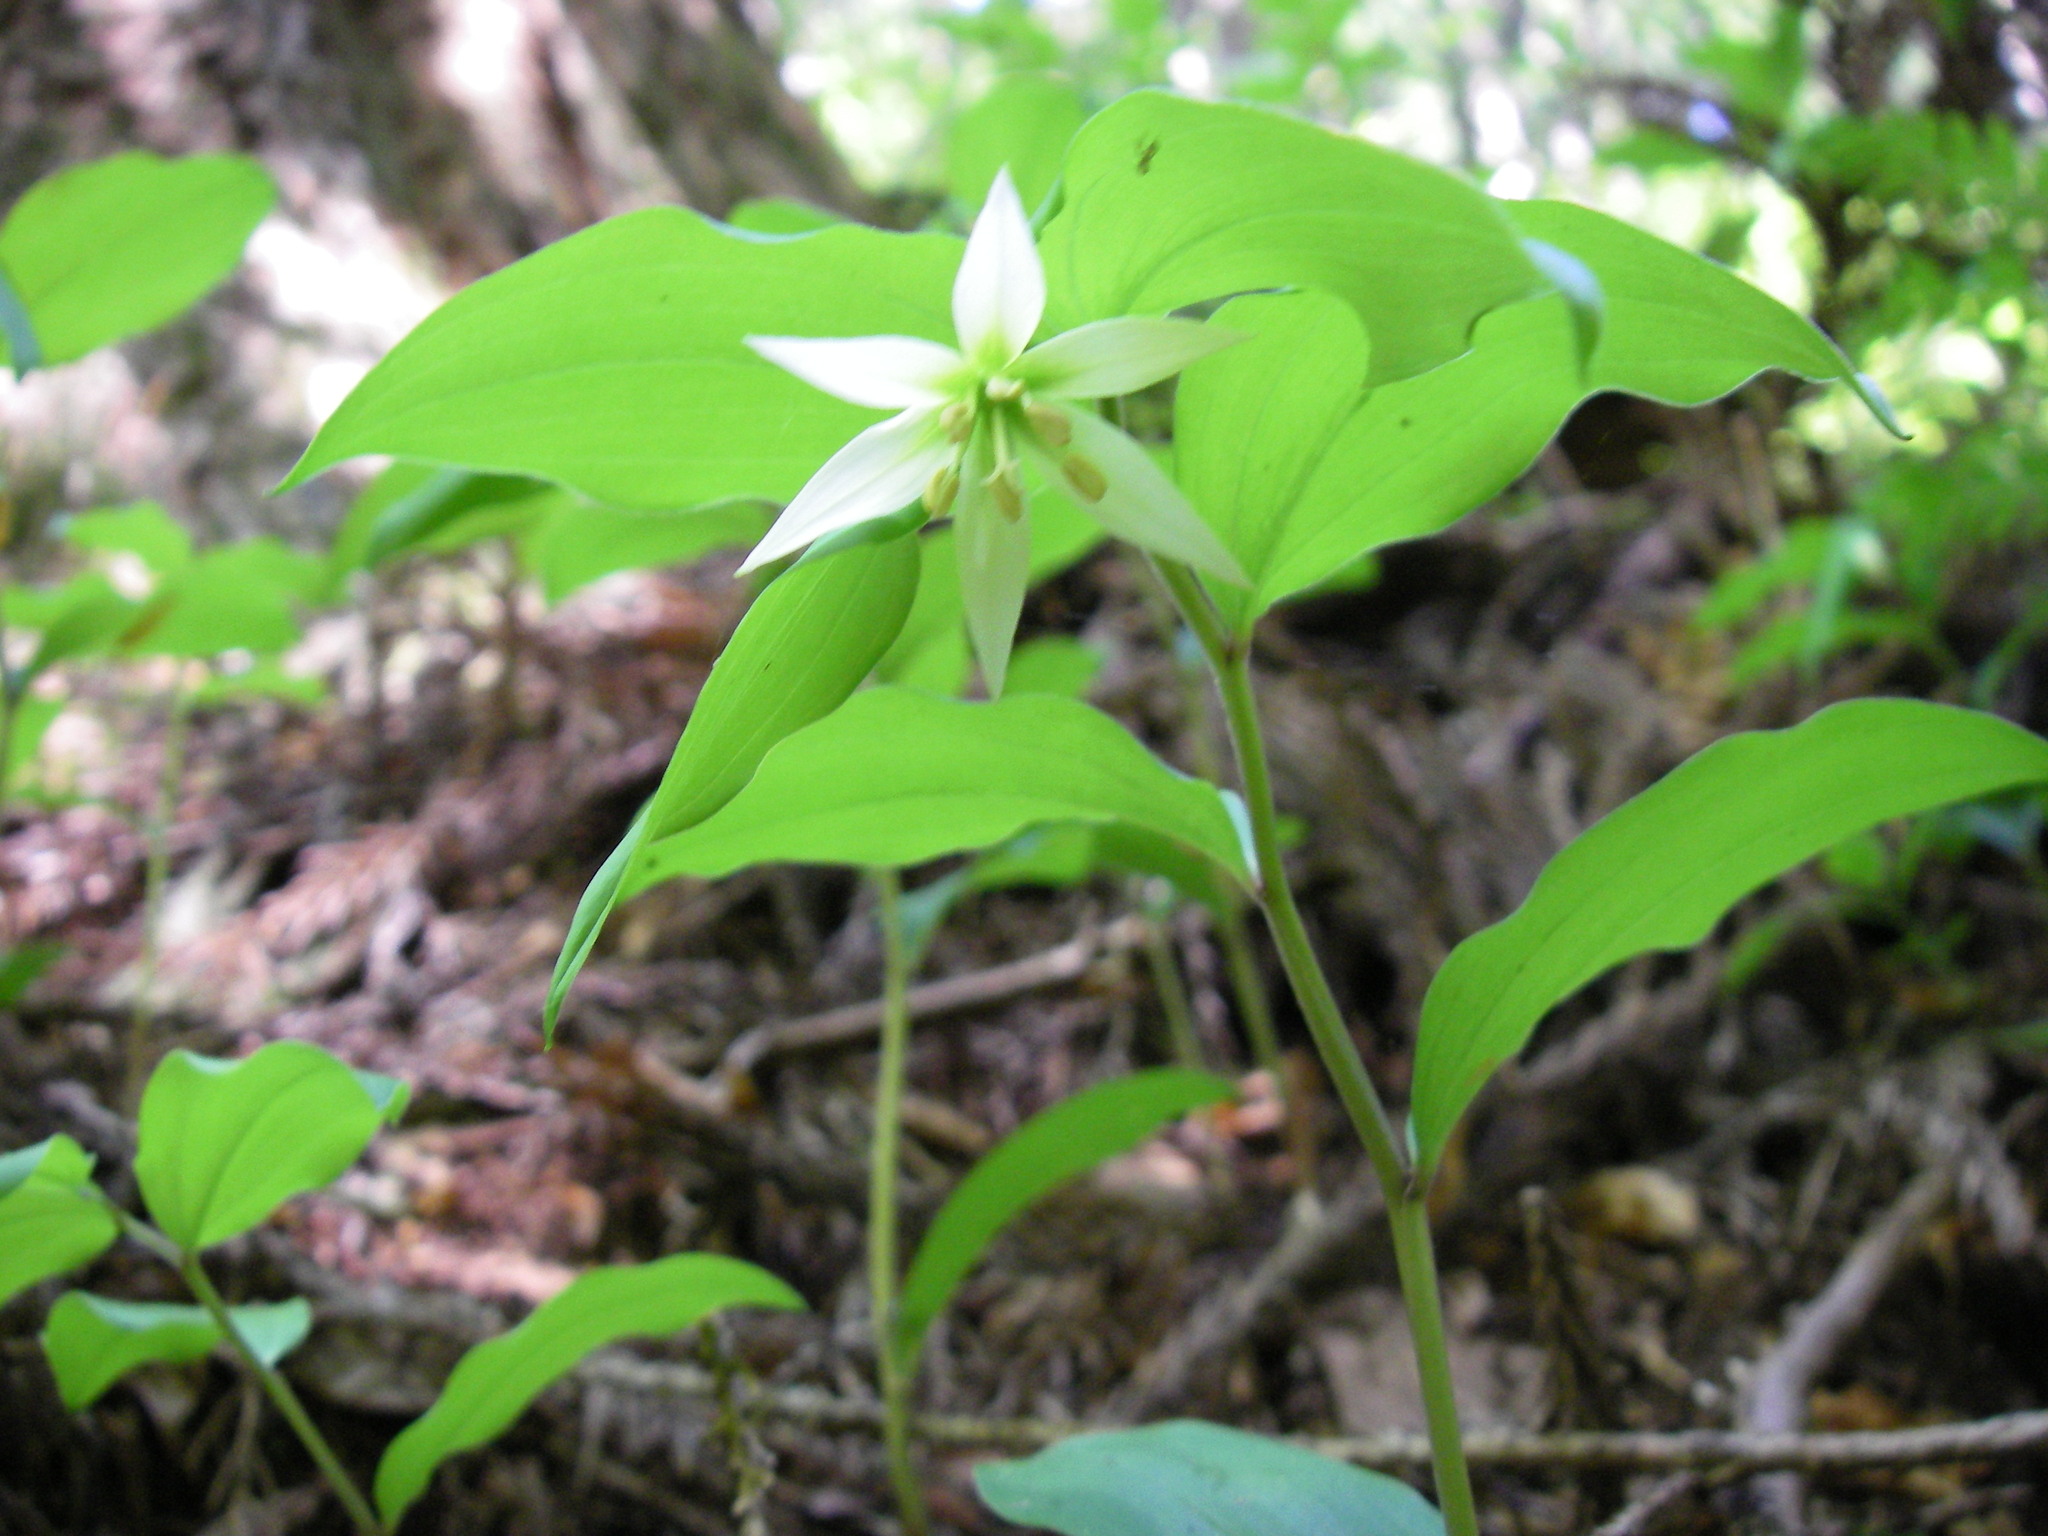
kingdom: Plantae
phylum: Tracheophyta
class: Liliopsida
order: Liliales
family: Colchicaceae
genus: Disporum
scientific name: Disporum smilacinum
